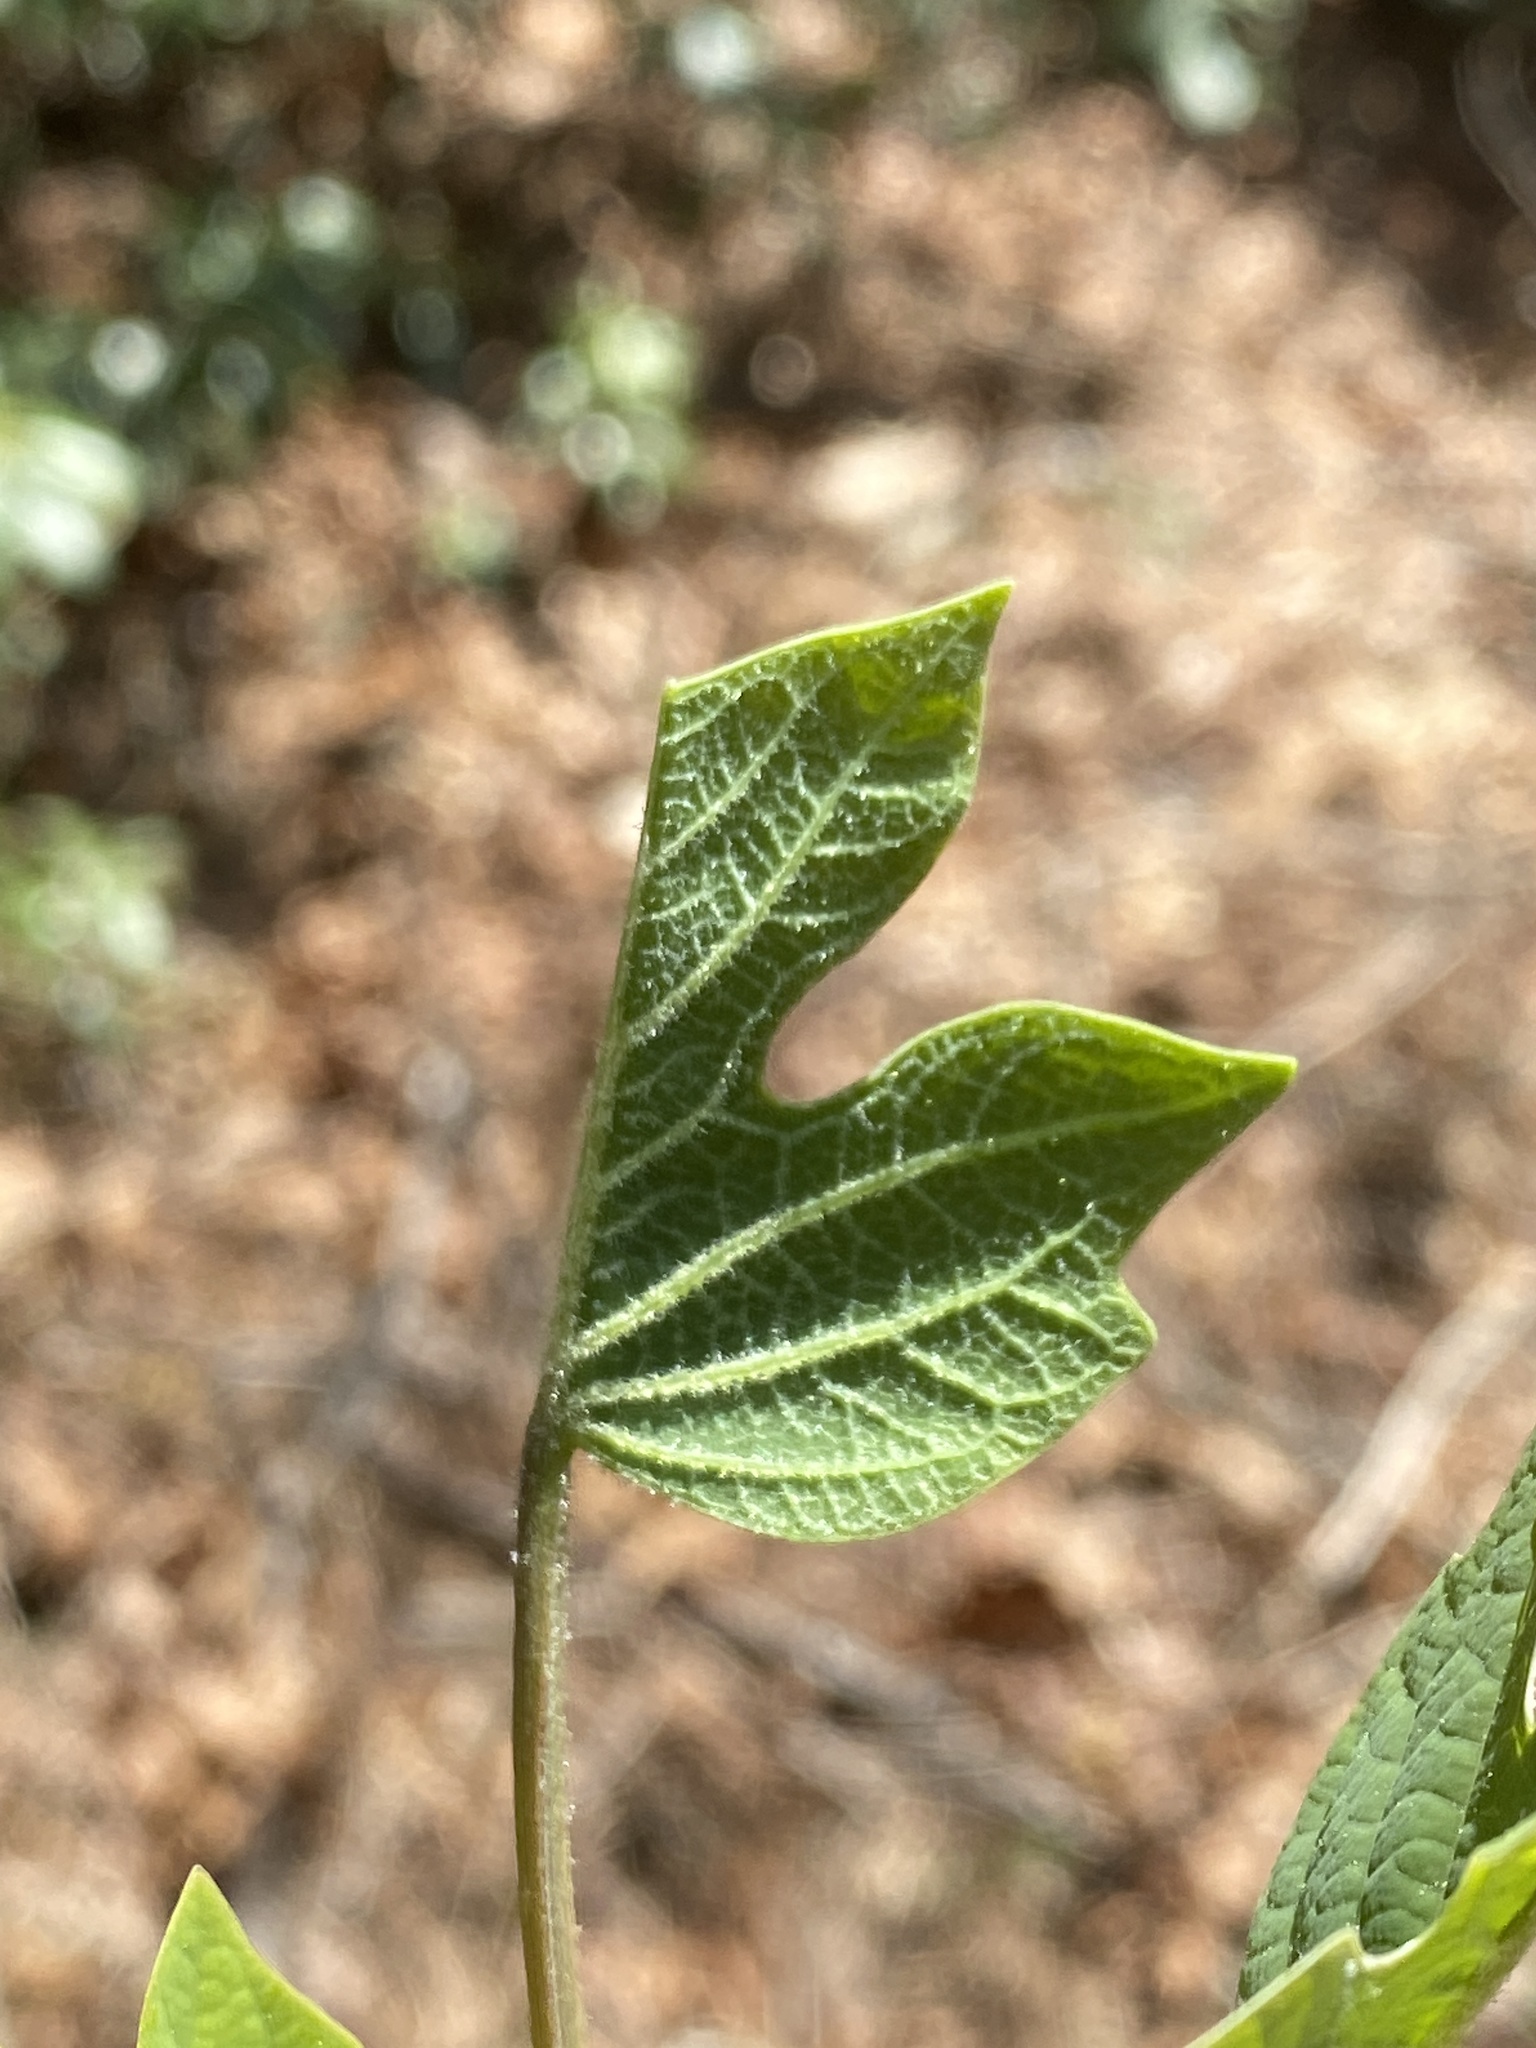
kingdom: Plantae
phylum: Tracheophyta
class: Magnoliopsida
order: Magnoliales
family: Magnoliaceae
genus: Liriodendron
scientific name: Liriodendron tulipifera
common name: Tulip tree
